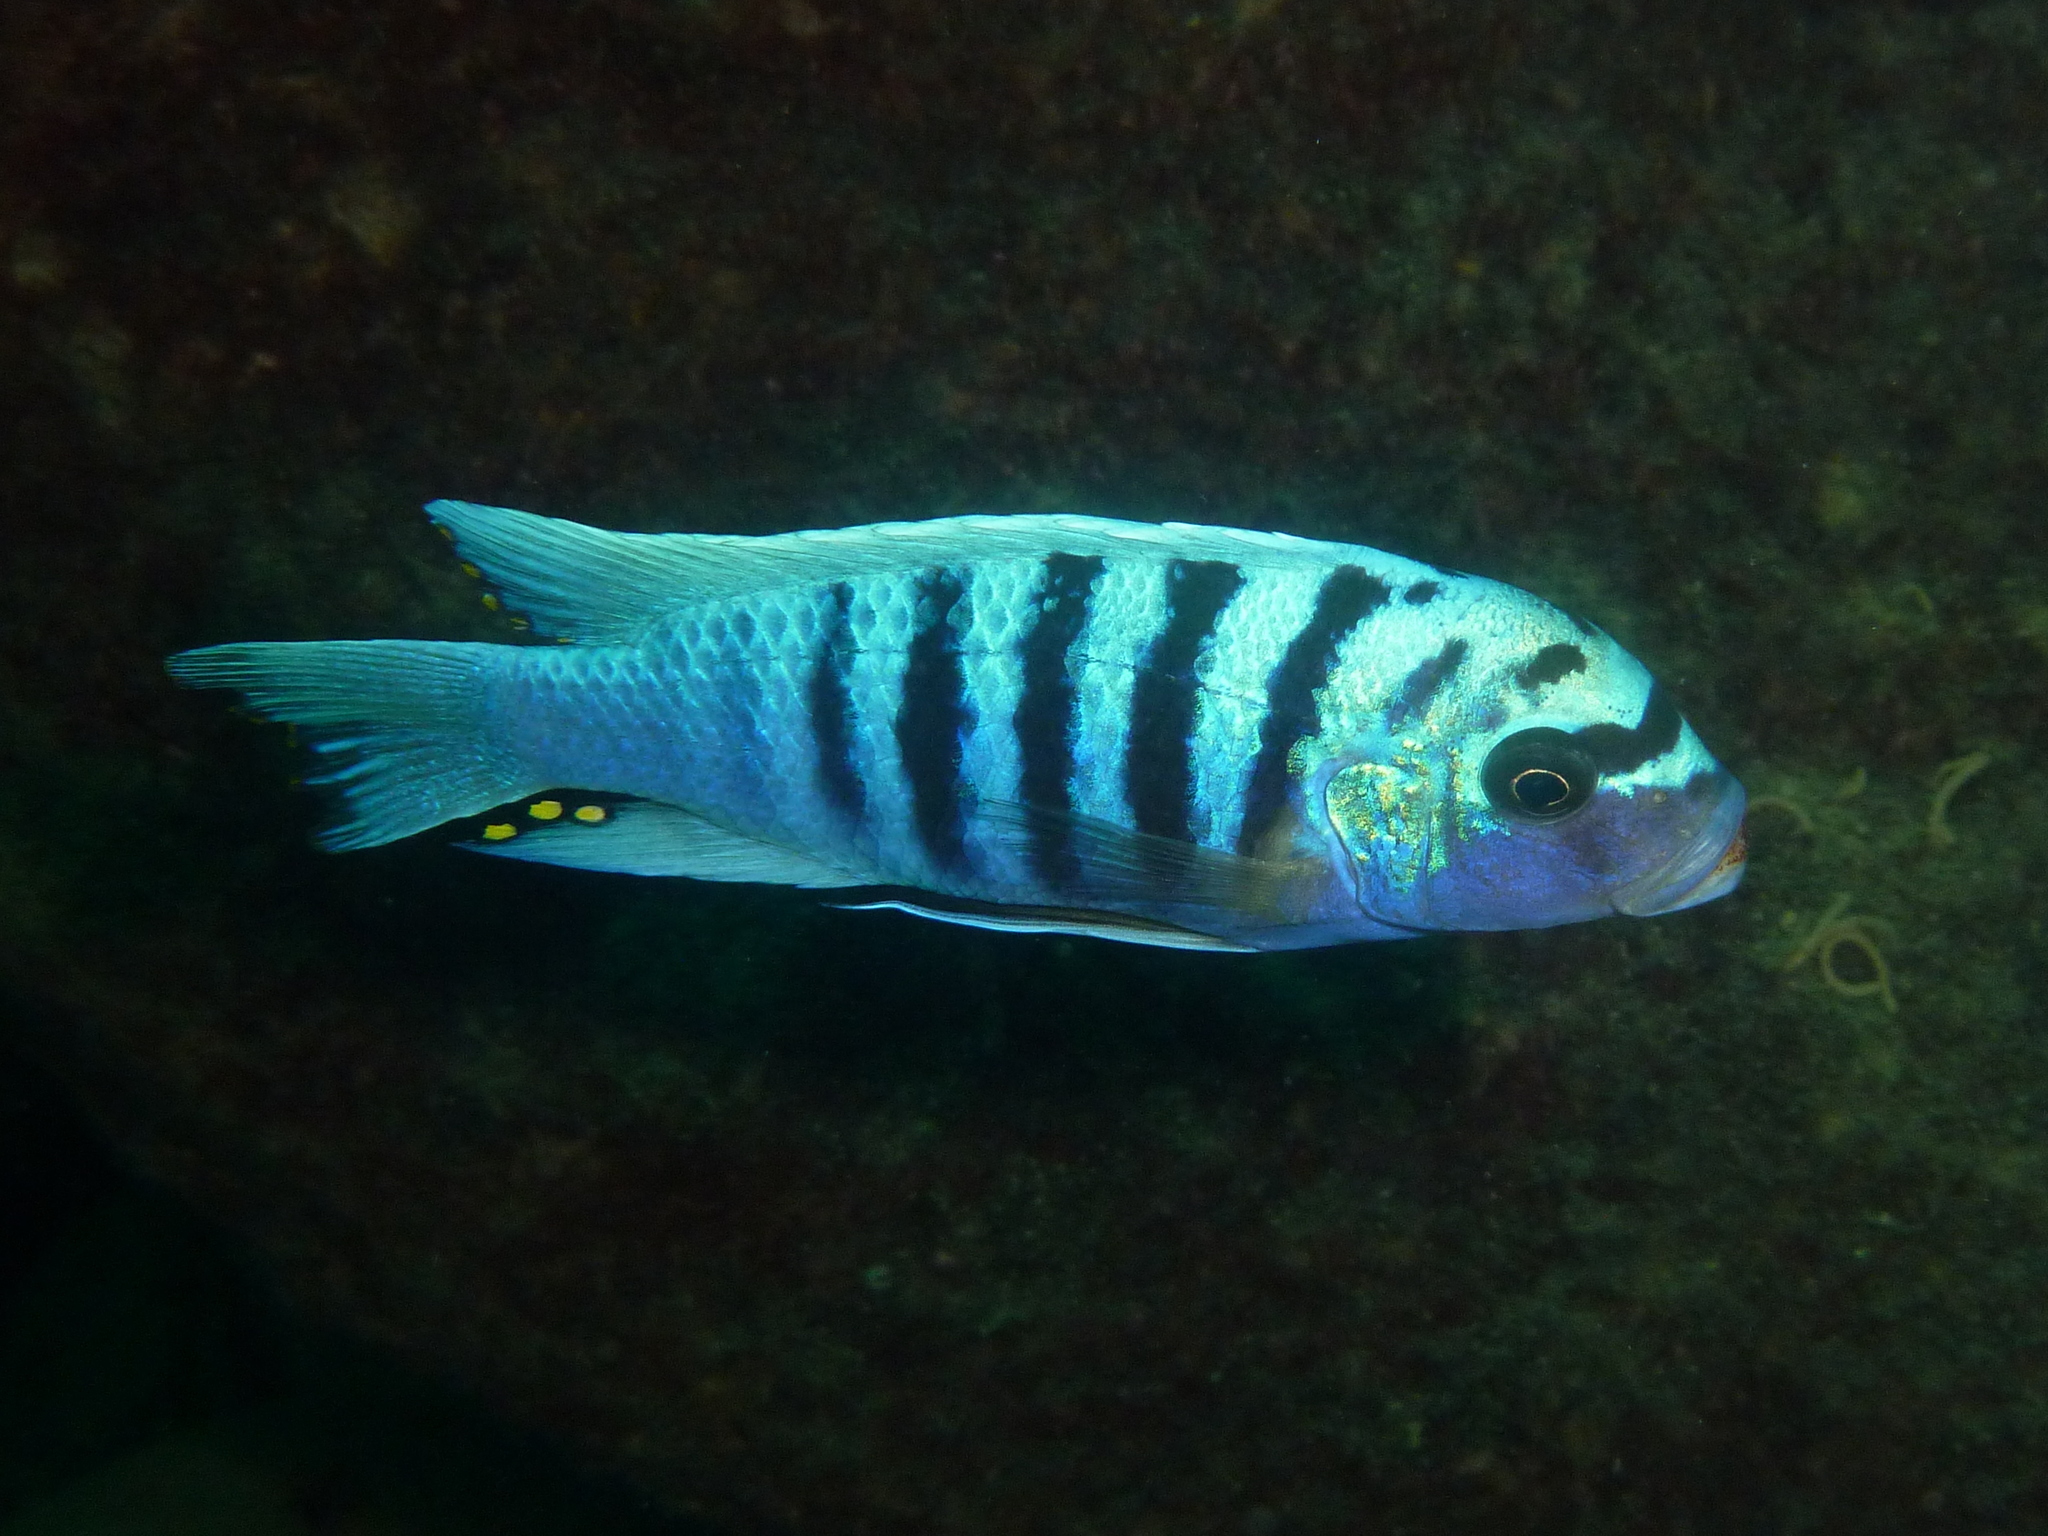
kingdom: Animalia
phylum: Chordata
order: Perciformes
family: Cichlidae
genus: Maylandia
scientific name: Maylandia zebra
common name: Zebra mbuna
